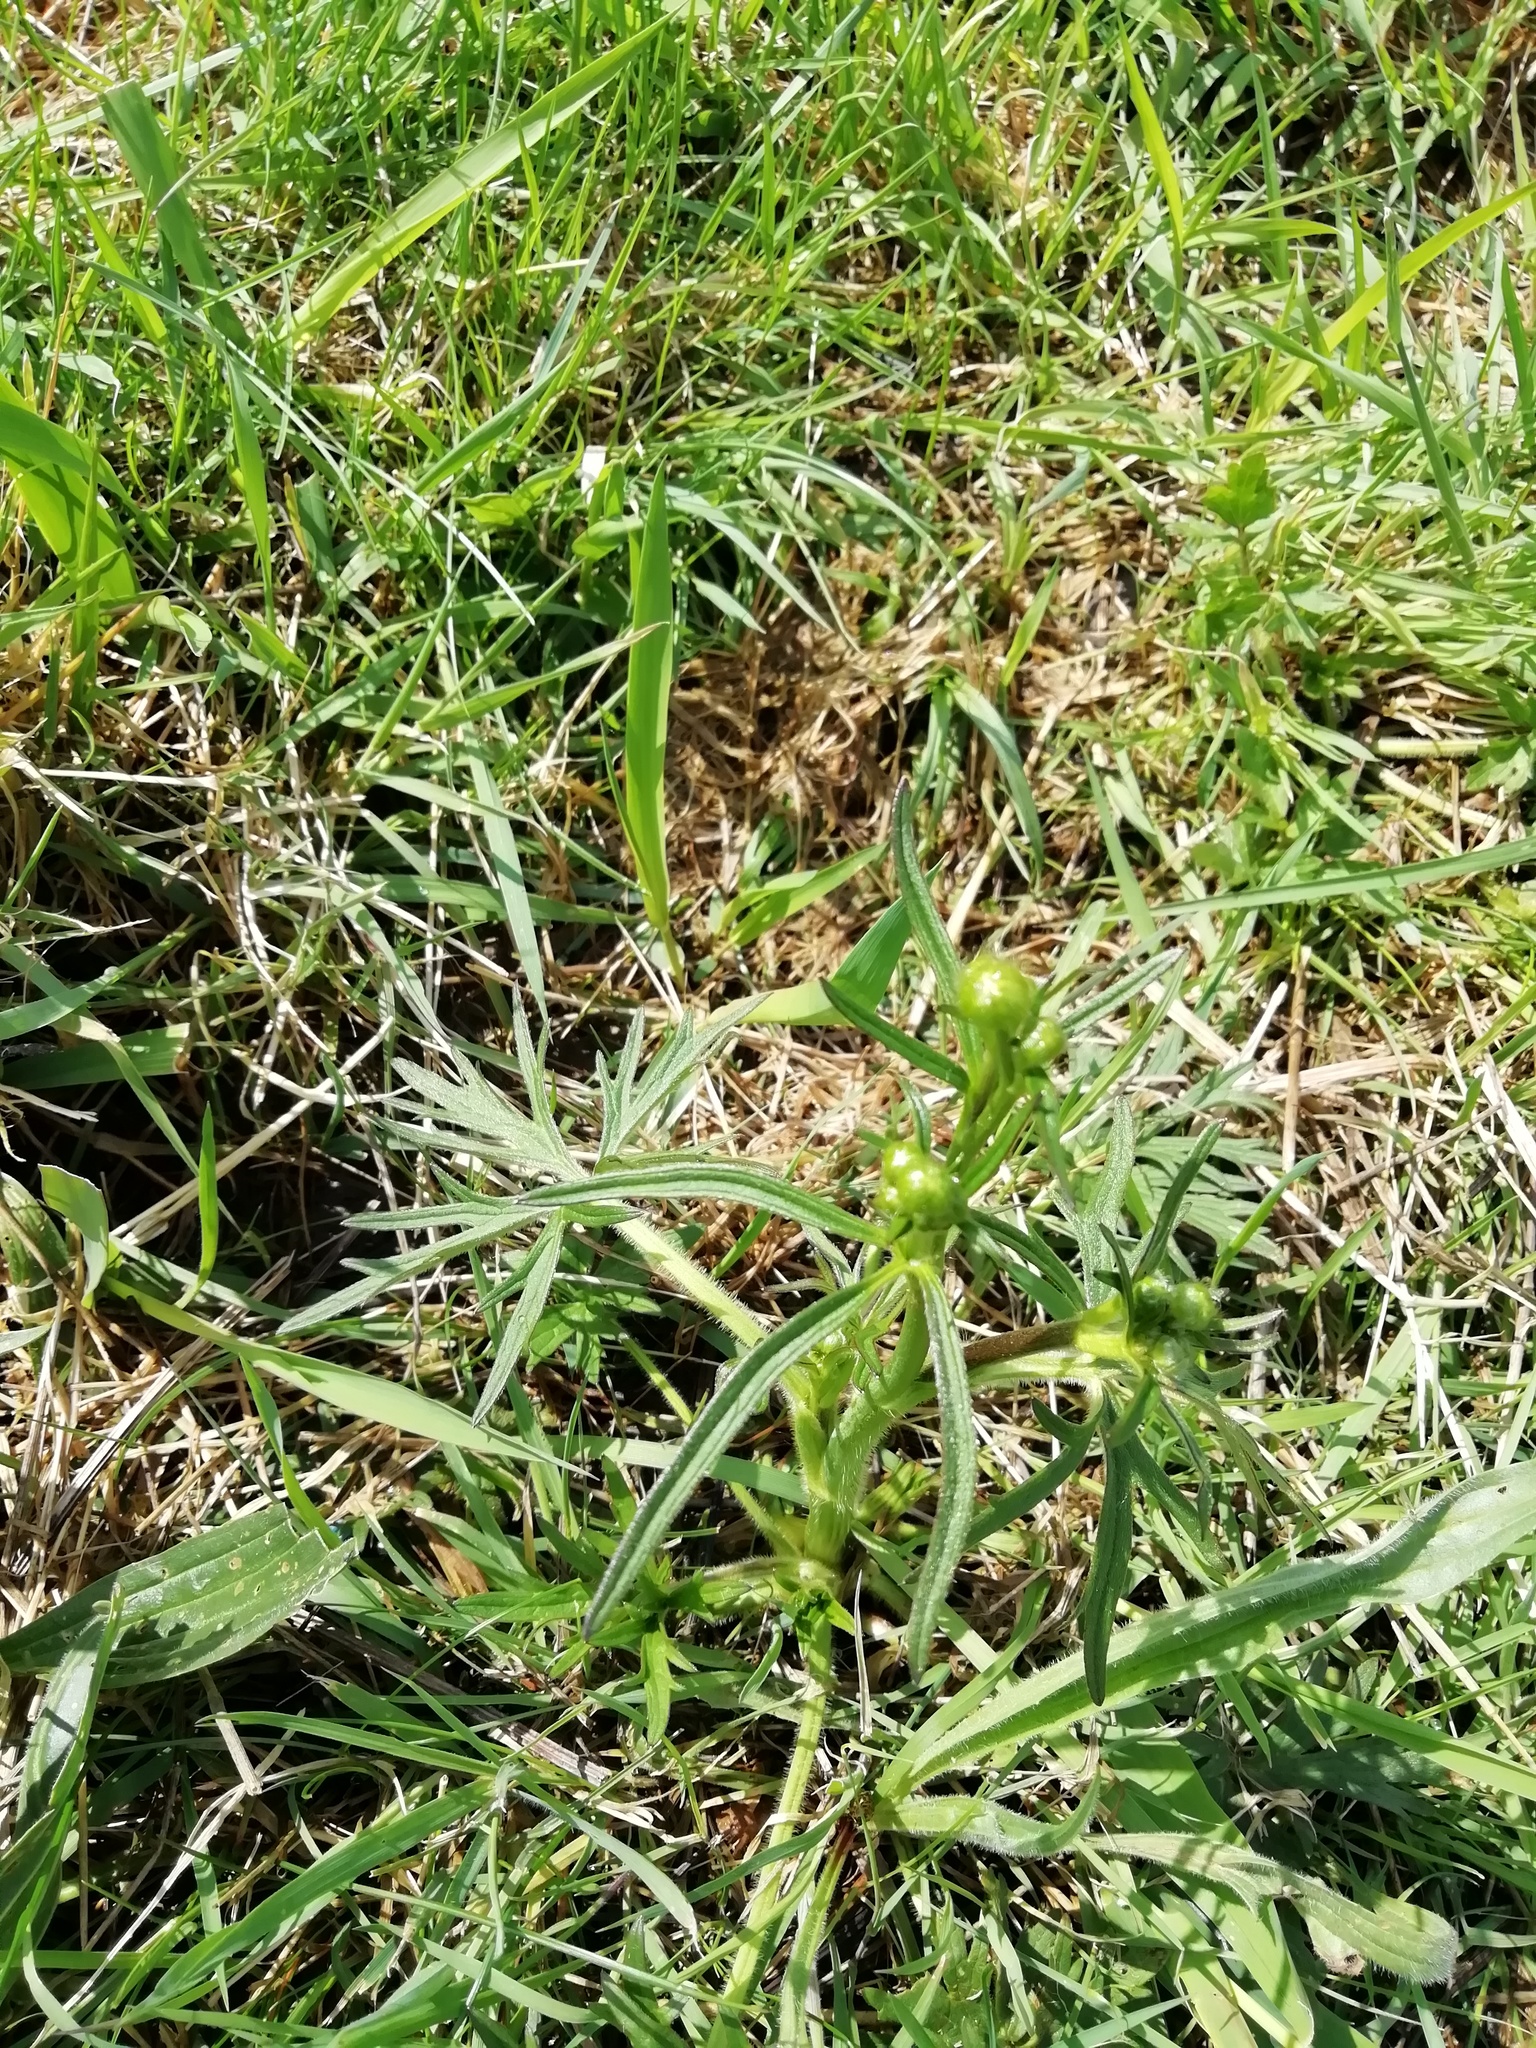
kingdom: Plantae
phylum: Tracheophyta
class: Magnoliopsida
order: Ranunculales
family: Ranunculaceae
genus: Ranunculus
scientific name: Ranunculus acris
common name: Meadow buttercup
